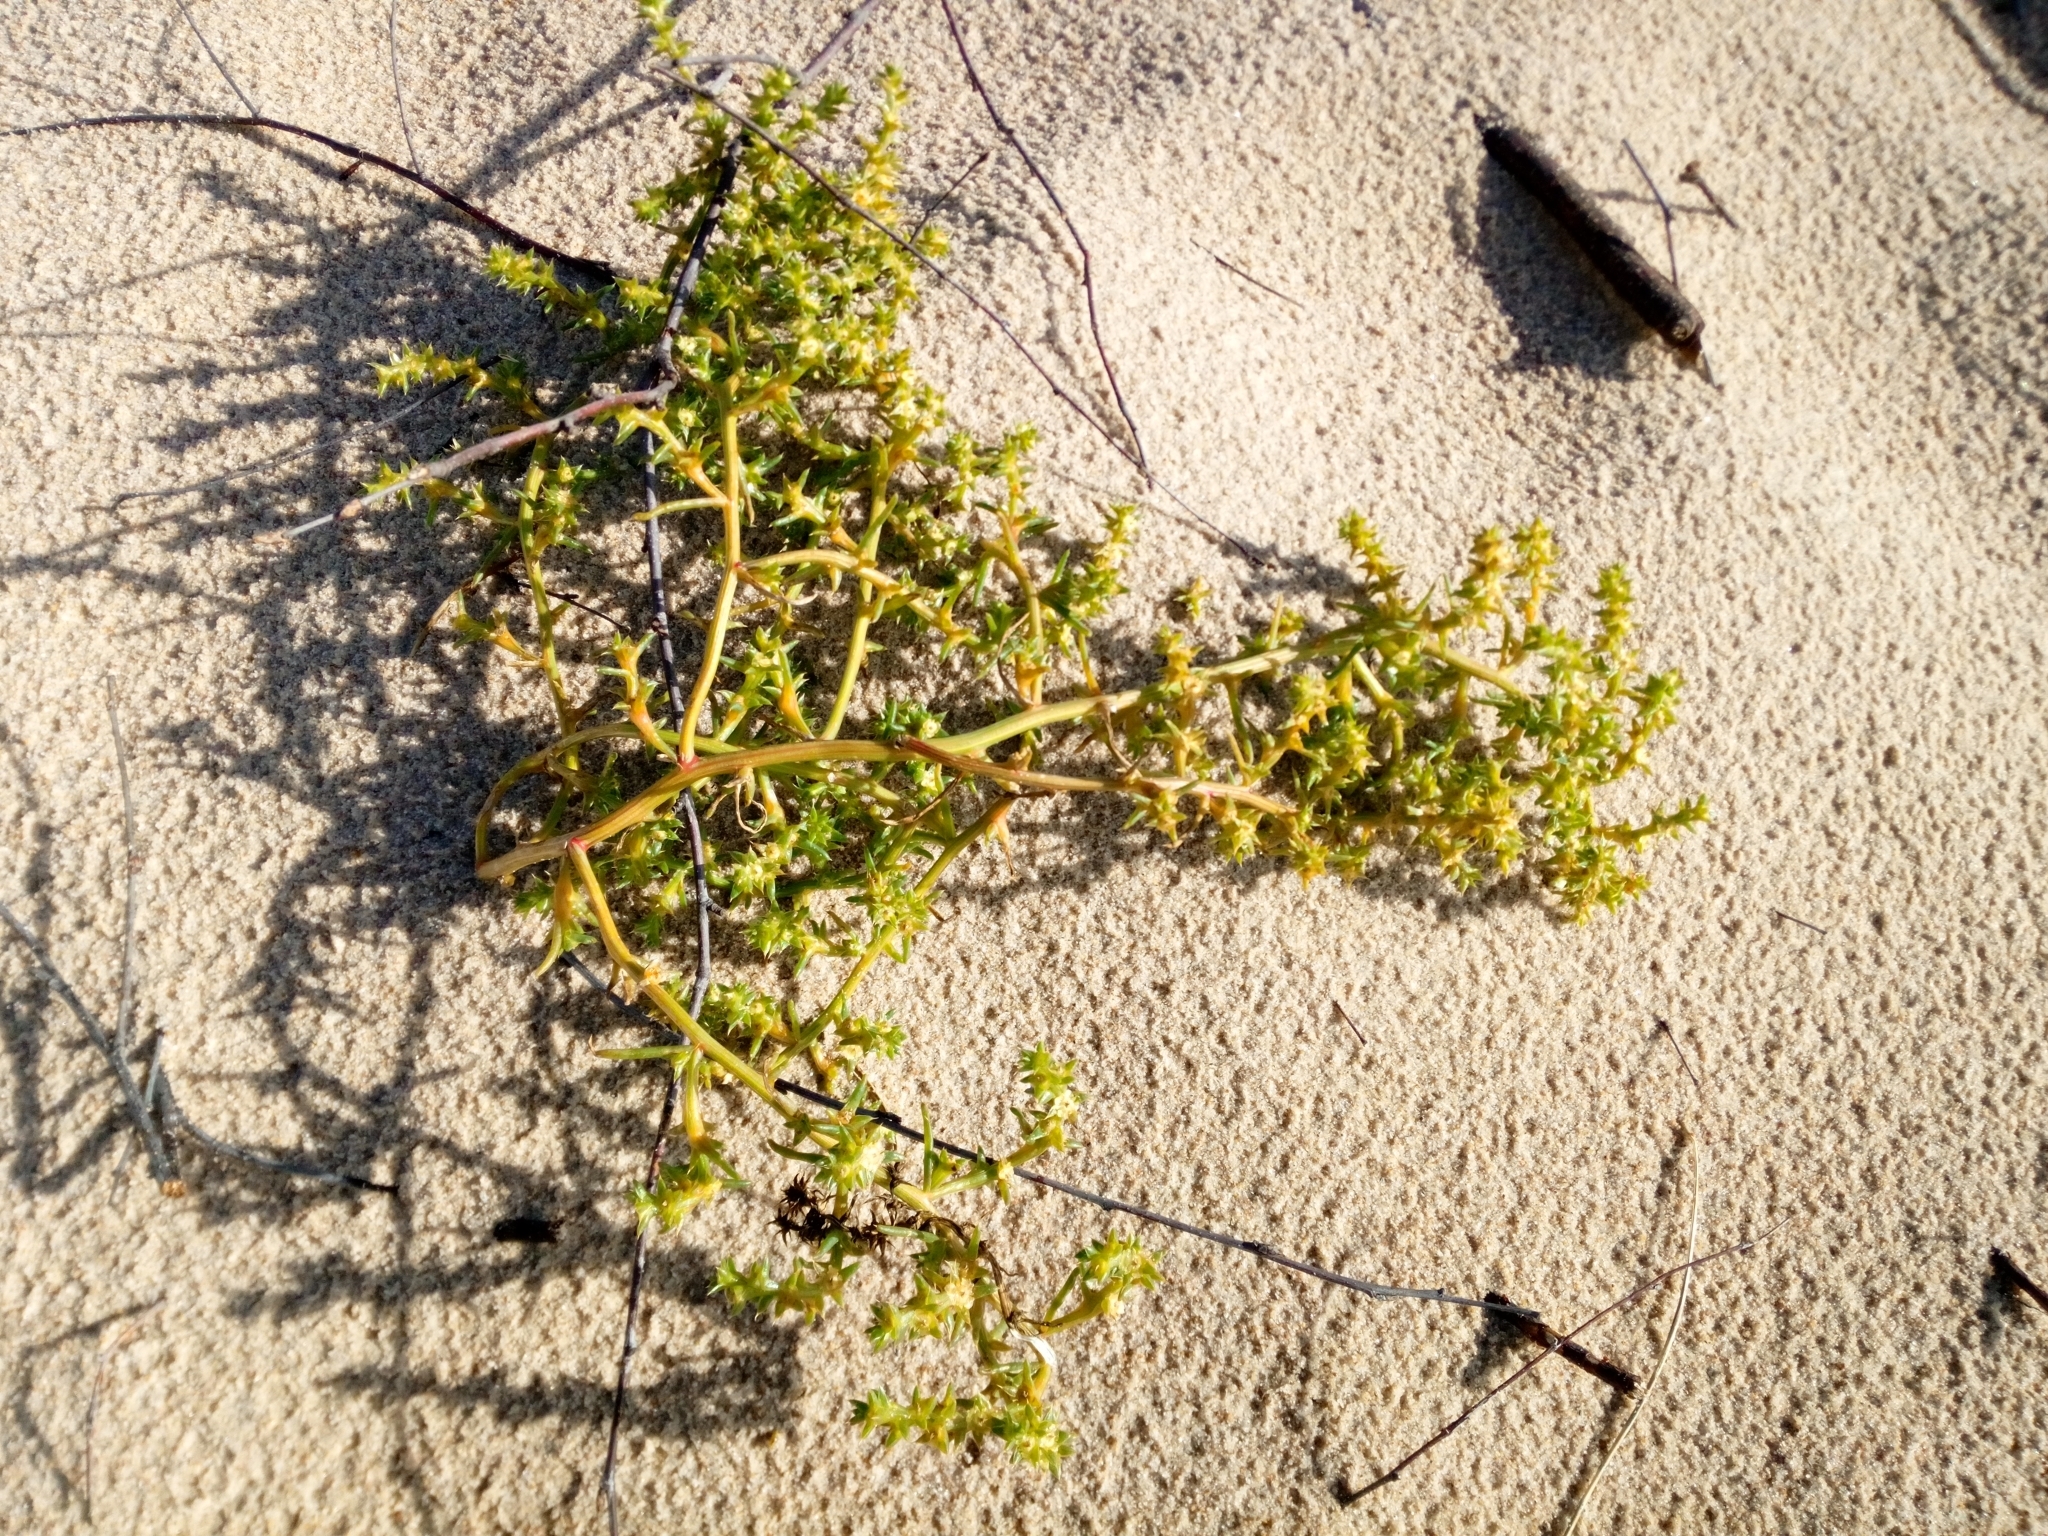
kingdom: Plantae
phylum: Tracheophyta
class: Magnoliopsida
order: Caryophyllales
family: Amaranthaceae
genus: Salsola
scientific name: Salsola kali
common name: Saltwort
